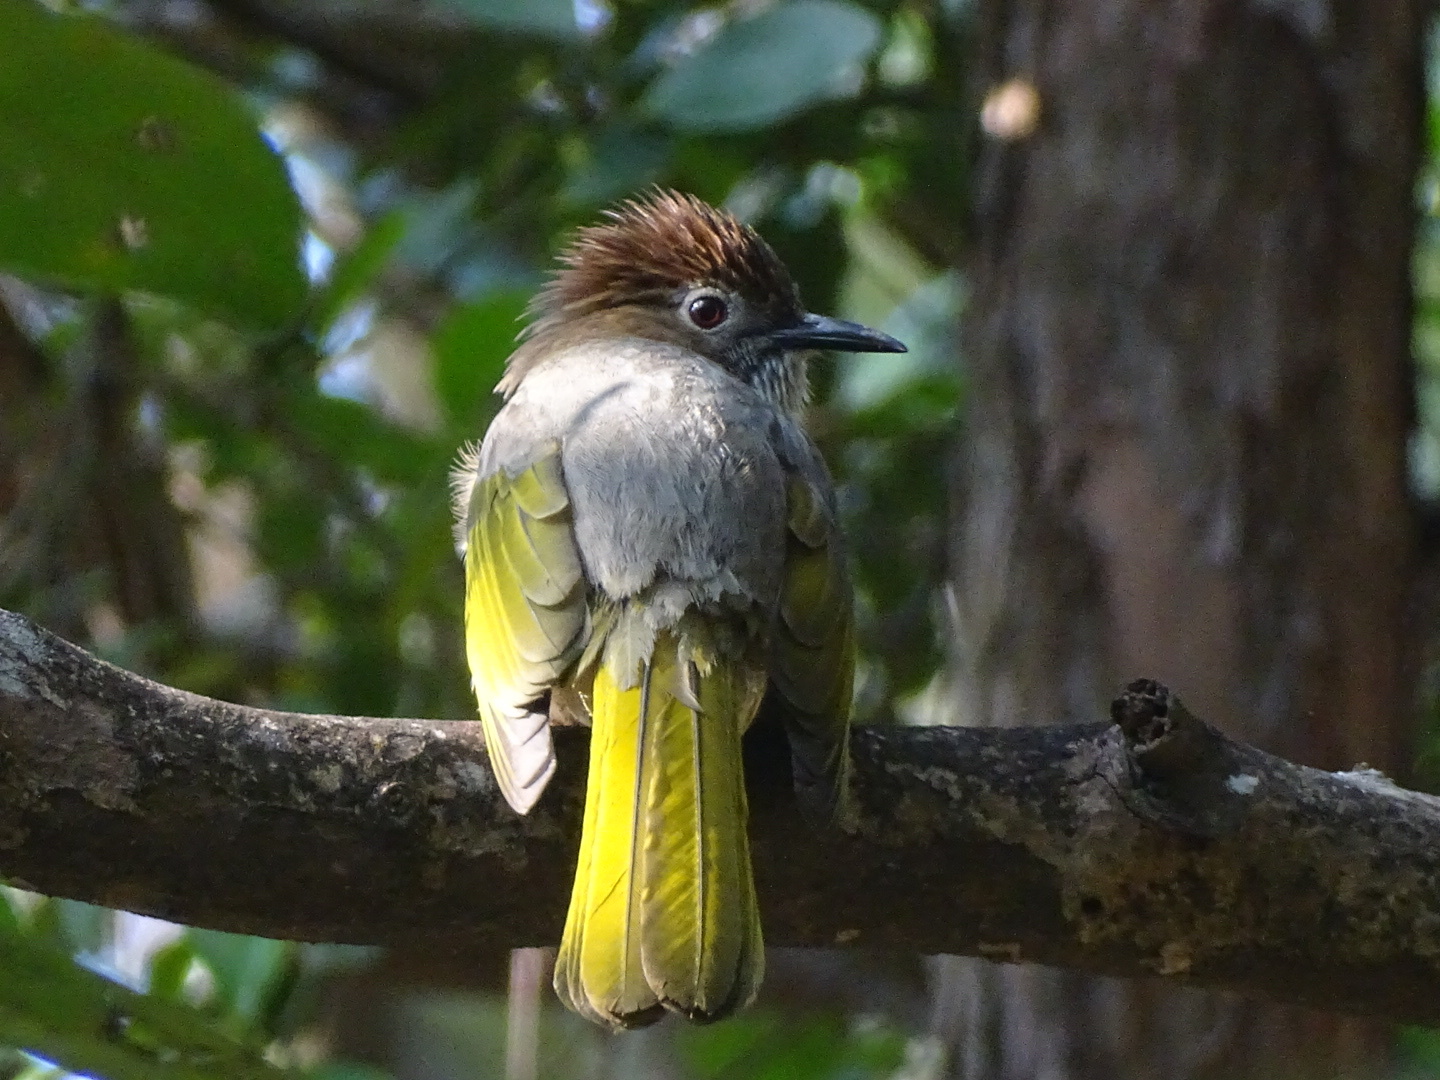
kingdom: Animalia
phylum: Chordata
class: Aves
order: Passeriformes
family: Pycnonotidae
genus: Ixos
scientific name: Ixos mcclellandii
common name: Mountain bulbul
